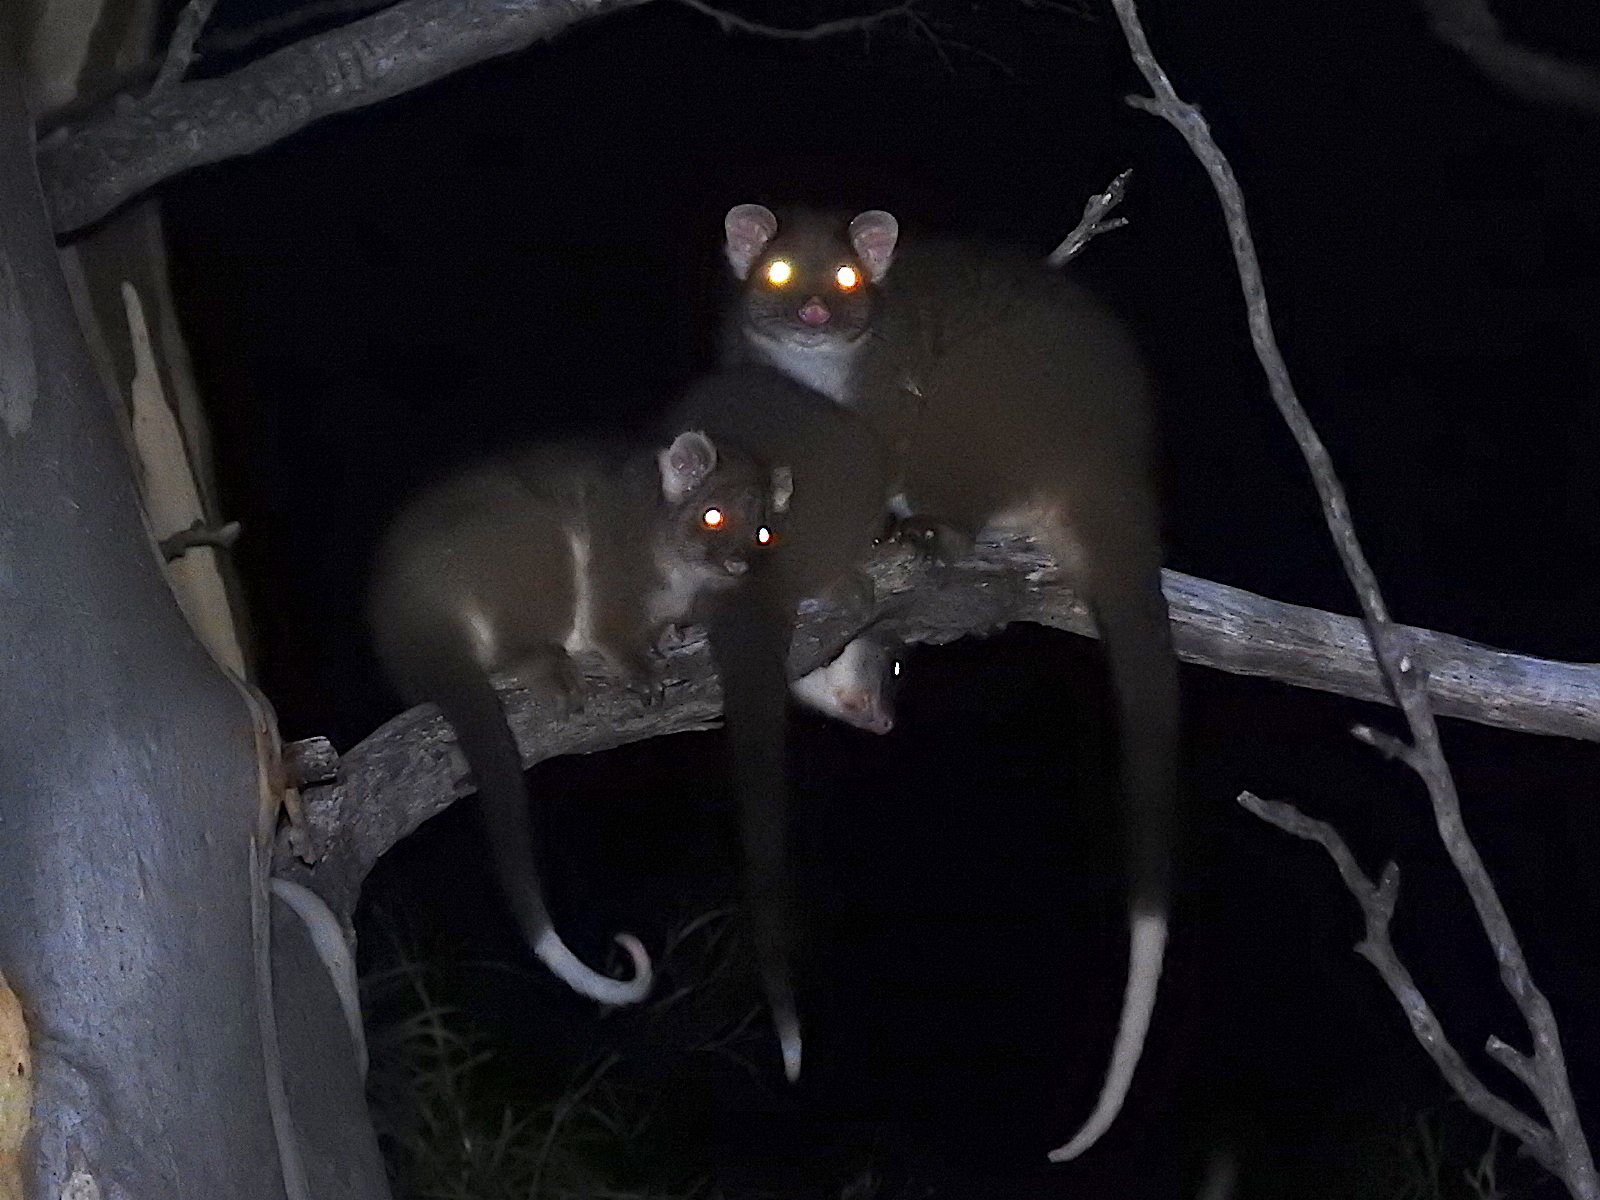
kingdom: Animalia
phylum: Chordata
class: Mammalia
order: Diprotodontia
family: Pseudocheiridae
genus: Pseudocheirus
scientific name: Pseudocheirus peregrinus
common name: Common ringtail possum
